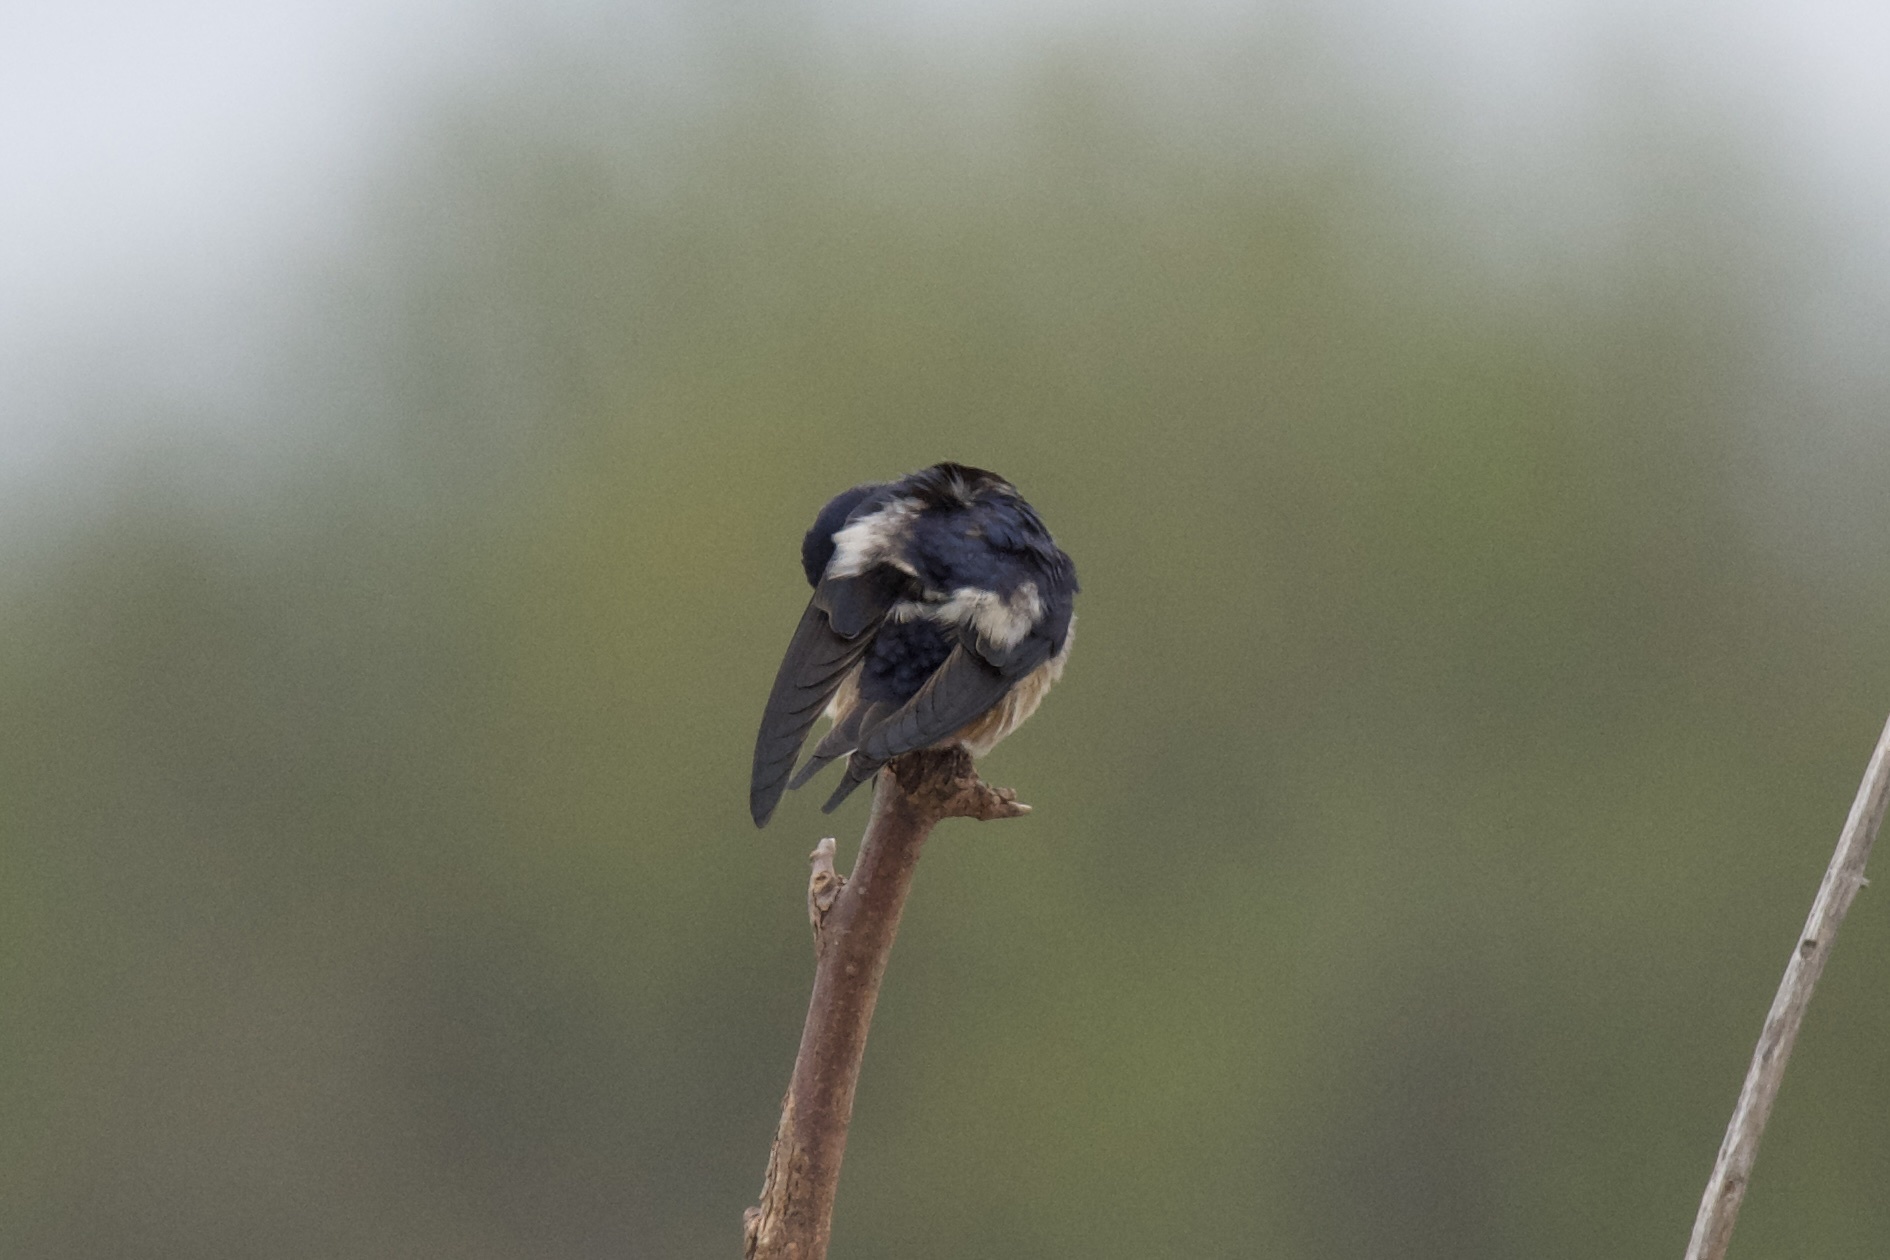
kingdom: Animalia
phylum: Chordata
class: Aves
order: Passeriformes
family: Hirundinidae
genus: Hirundo
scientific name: Hirundo rustica
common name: Barn swallow
